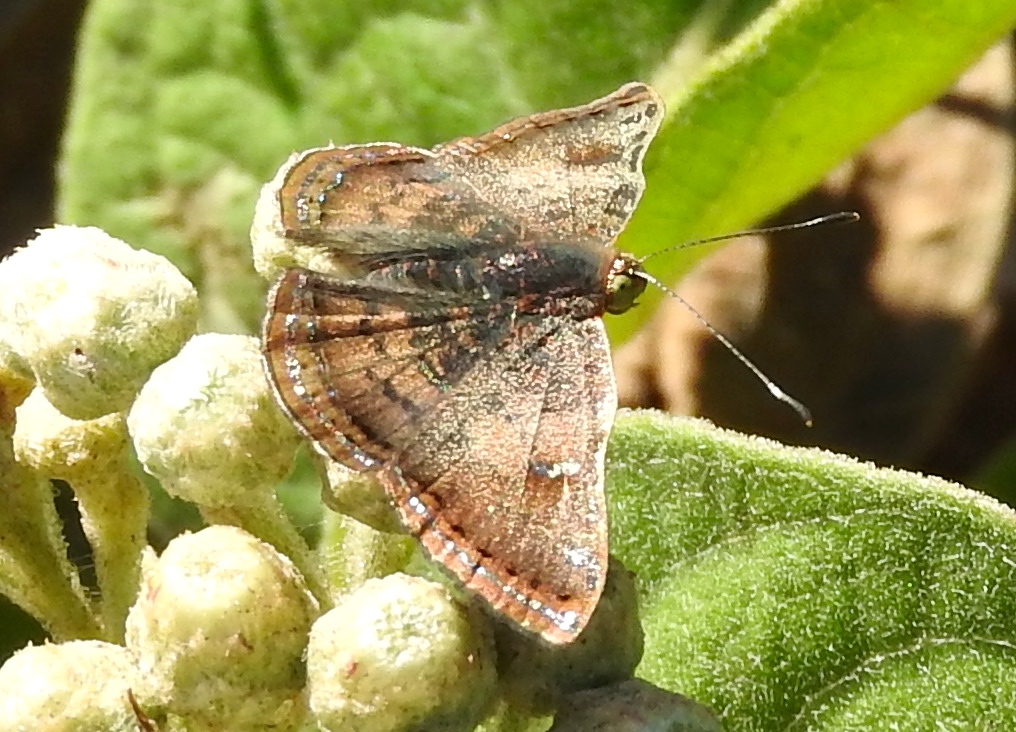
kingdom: Animalia
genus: Caria
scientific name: Caria ino
